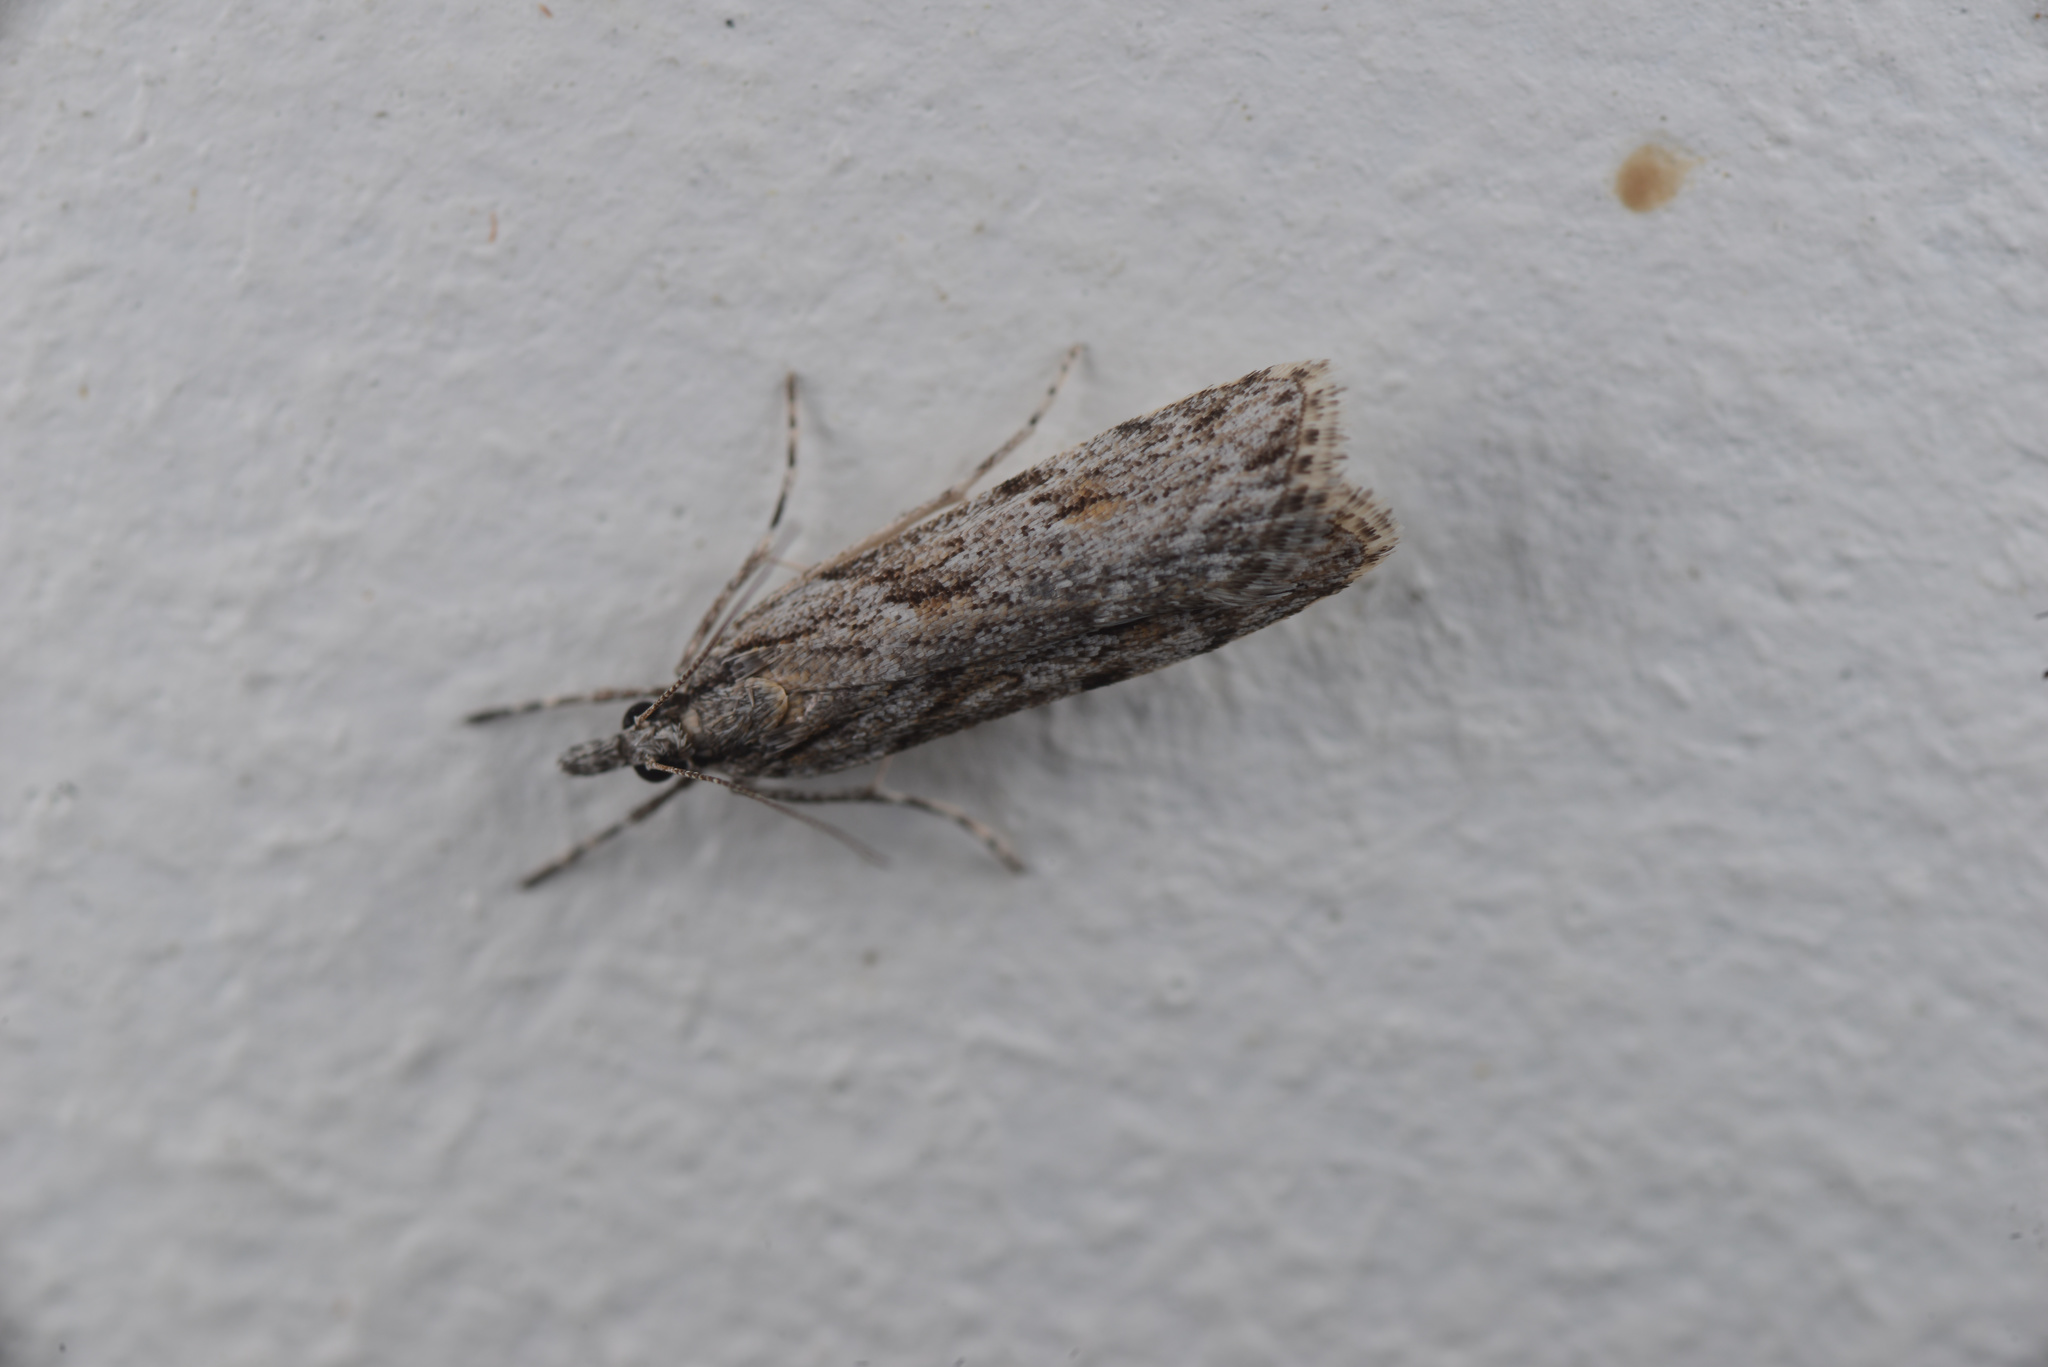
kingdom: Animalia
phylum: Arthropoda
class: Insecta
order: Lepidoptera
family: Crambidae
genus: Scoparia
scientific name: Scoparia chalicodes
